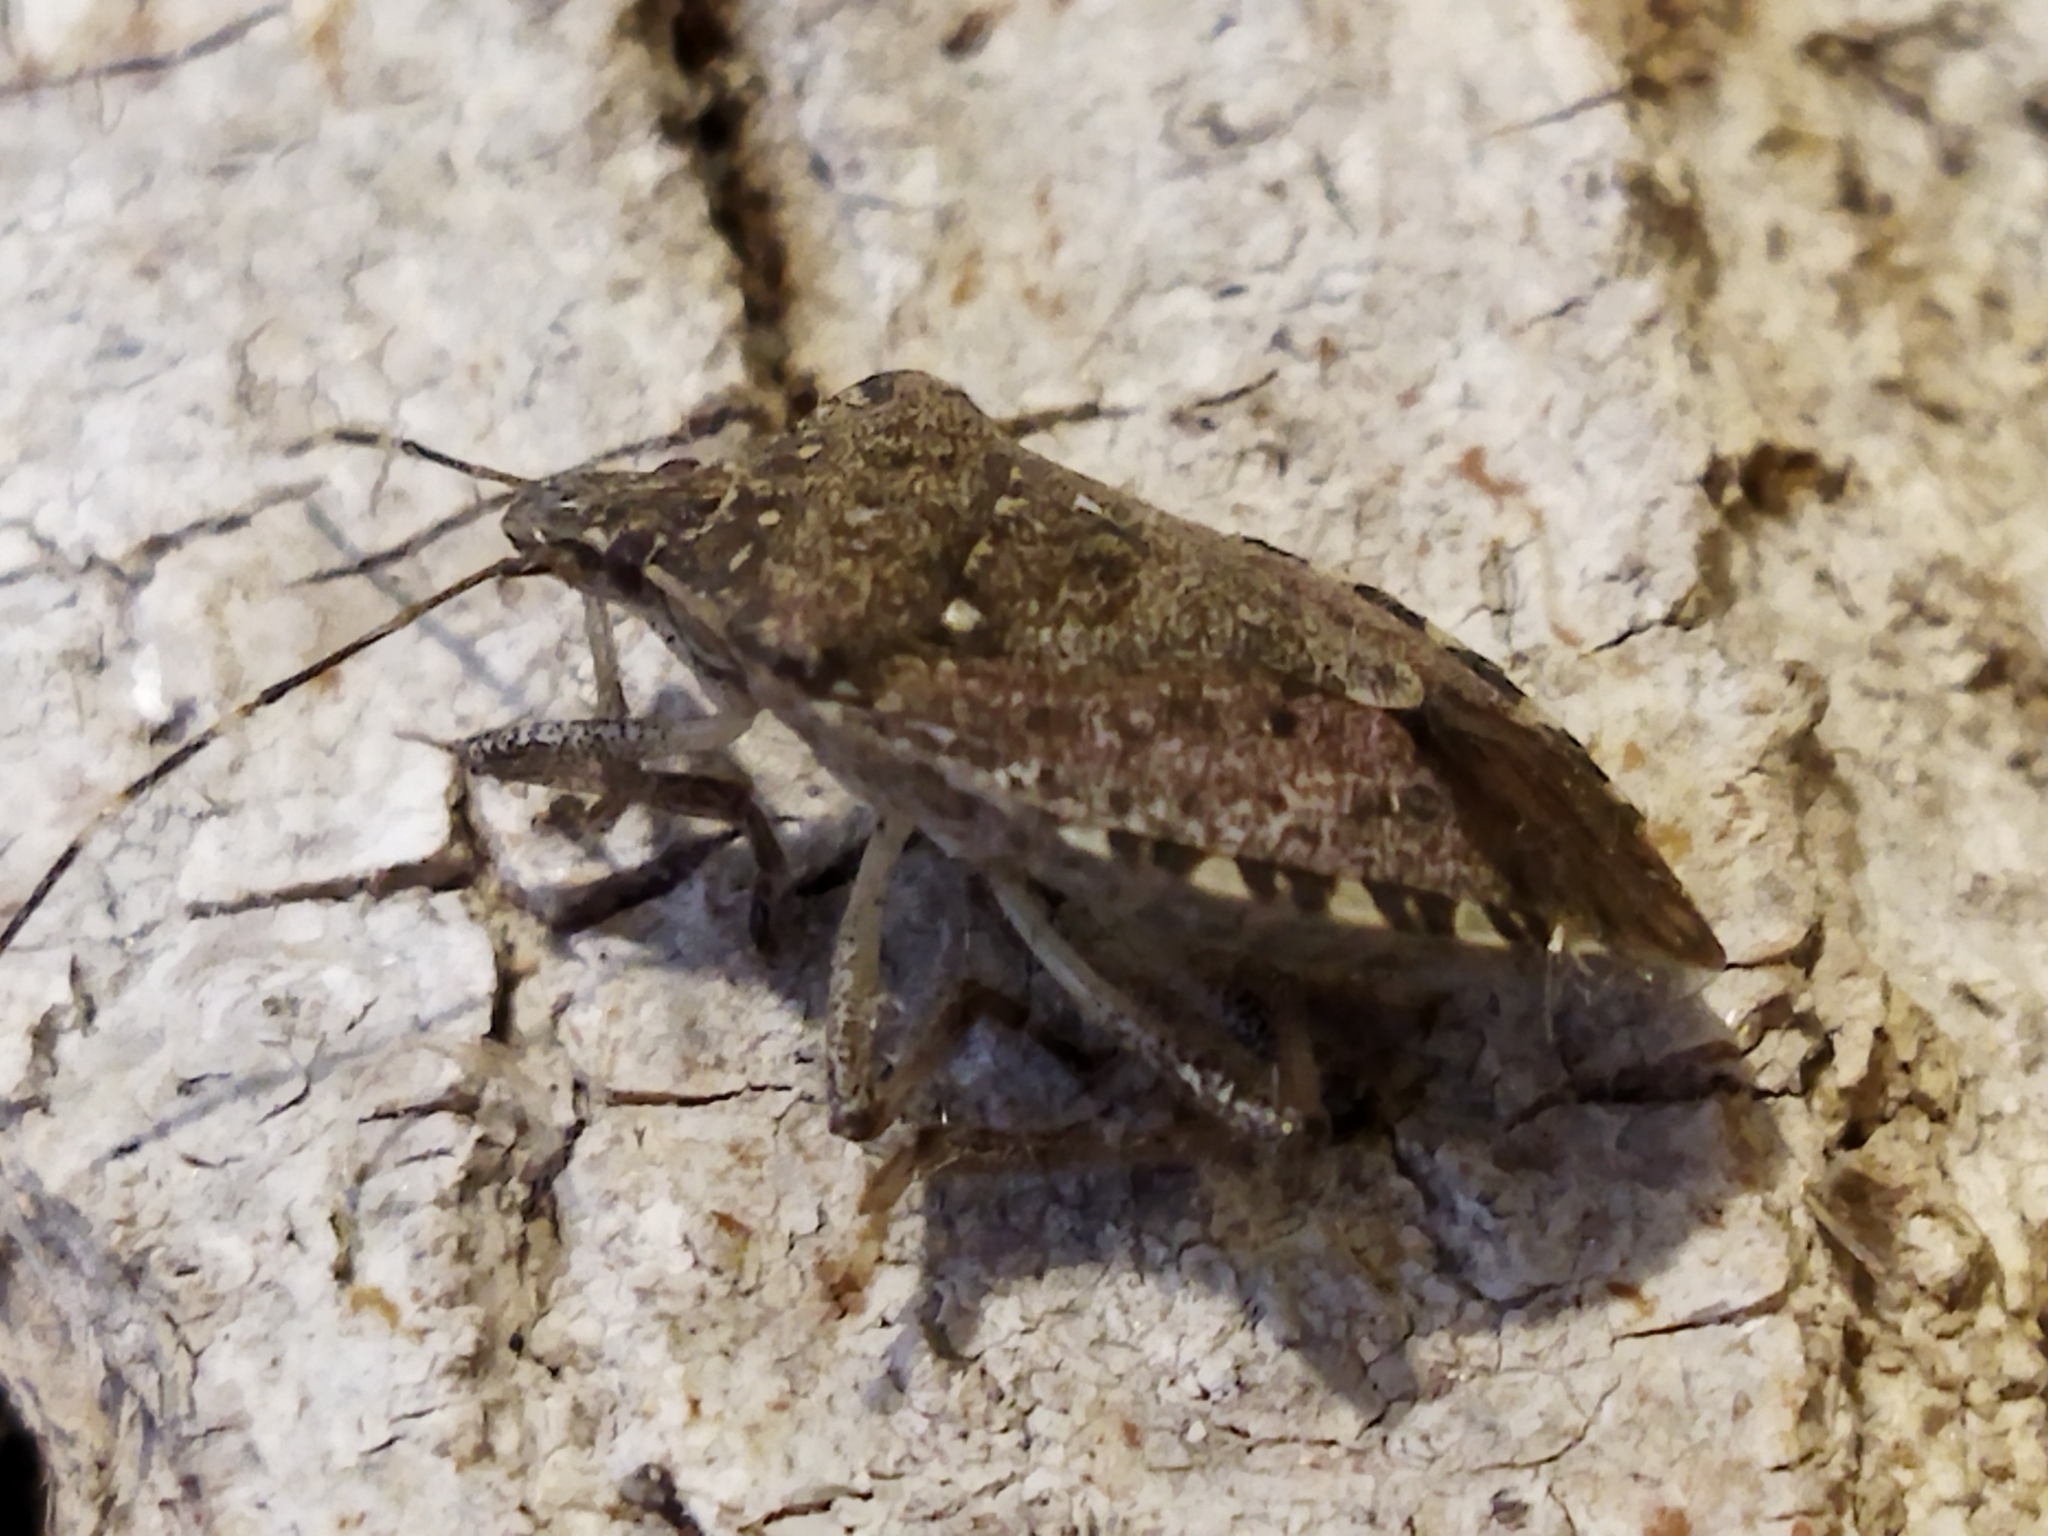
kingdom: Animalia
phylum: Arthropoda
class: Insecta
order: Hemiptera
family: Pentatomidae
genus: Halyomorpha
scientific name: Halyomorpha halys
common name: Brown marmorated stink bug
